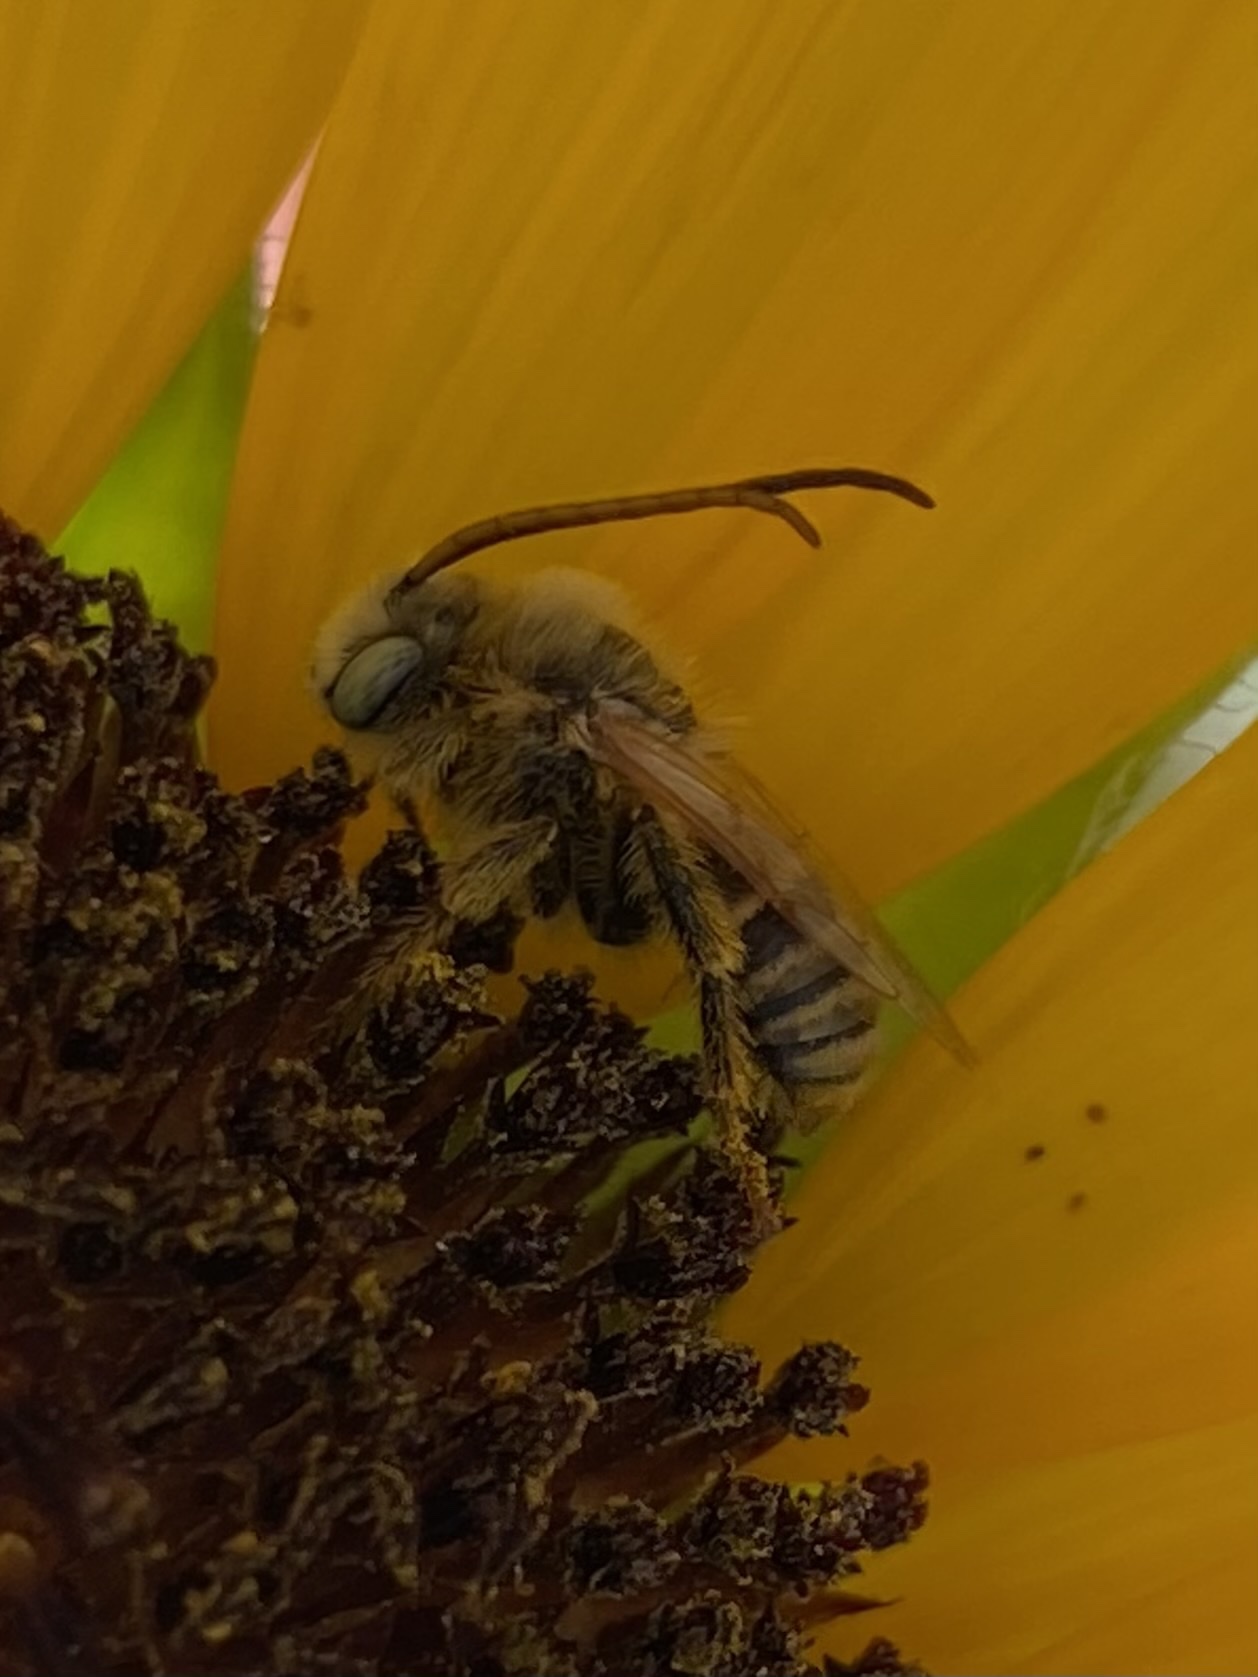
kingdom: Animalia
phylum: Arthropoda
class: Insecta
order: Hymenoptera
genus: Eumelissodes
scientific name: Eumelissodes
